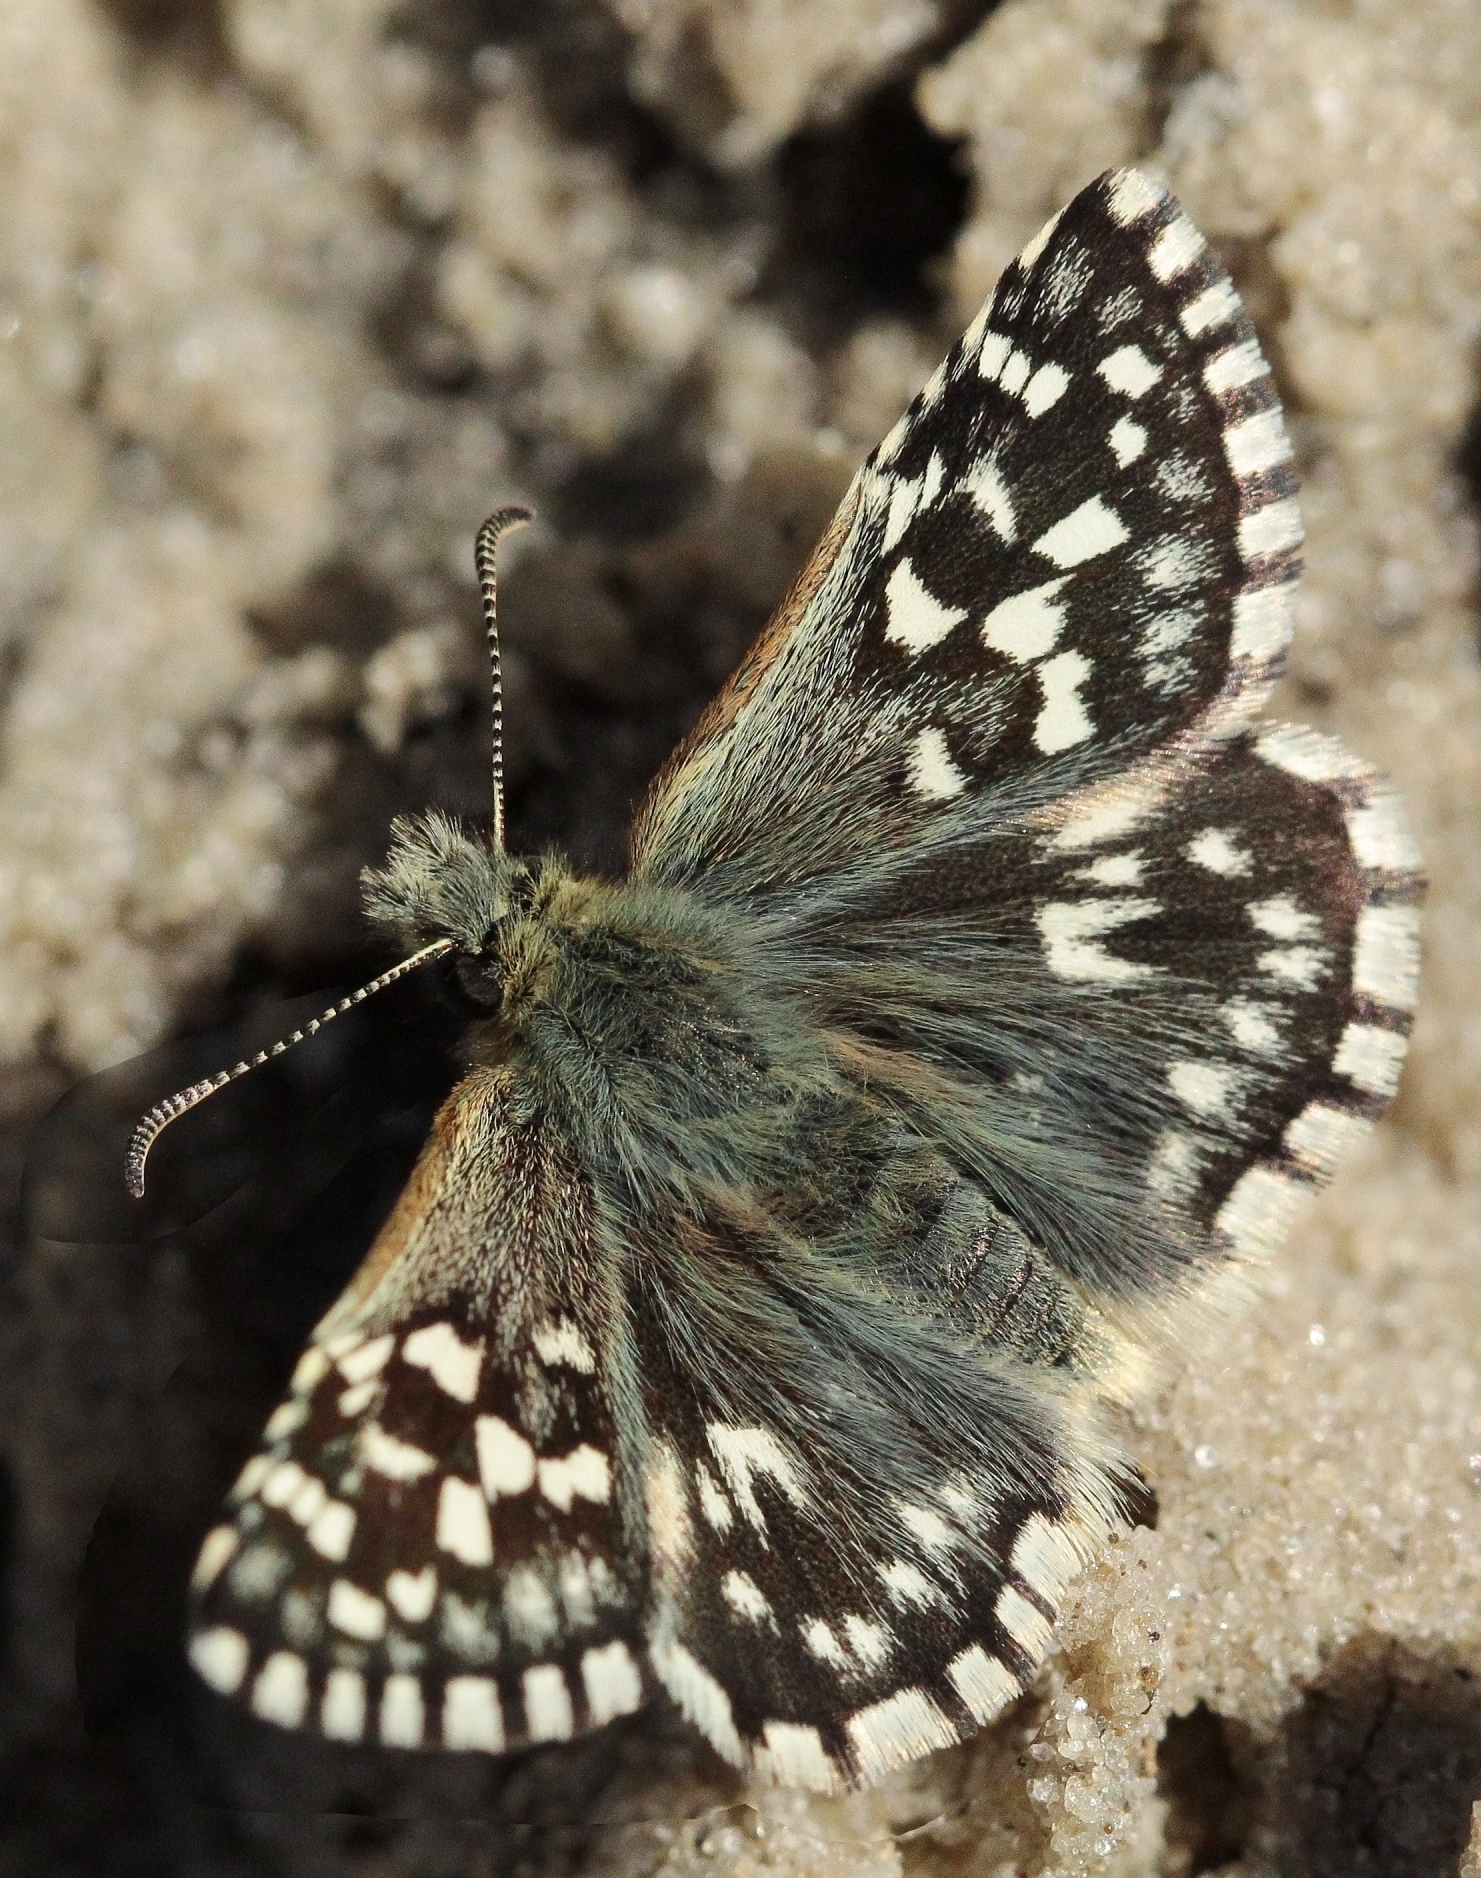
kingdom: Animalia
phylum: Arthropoda
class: Insecta
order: Lepidoptera
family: Hesperiidae
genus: Pyrgus
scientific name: Pyrgus malvae
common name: Grizzled skipper
